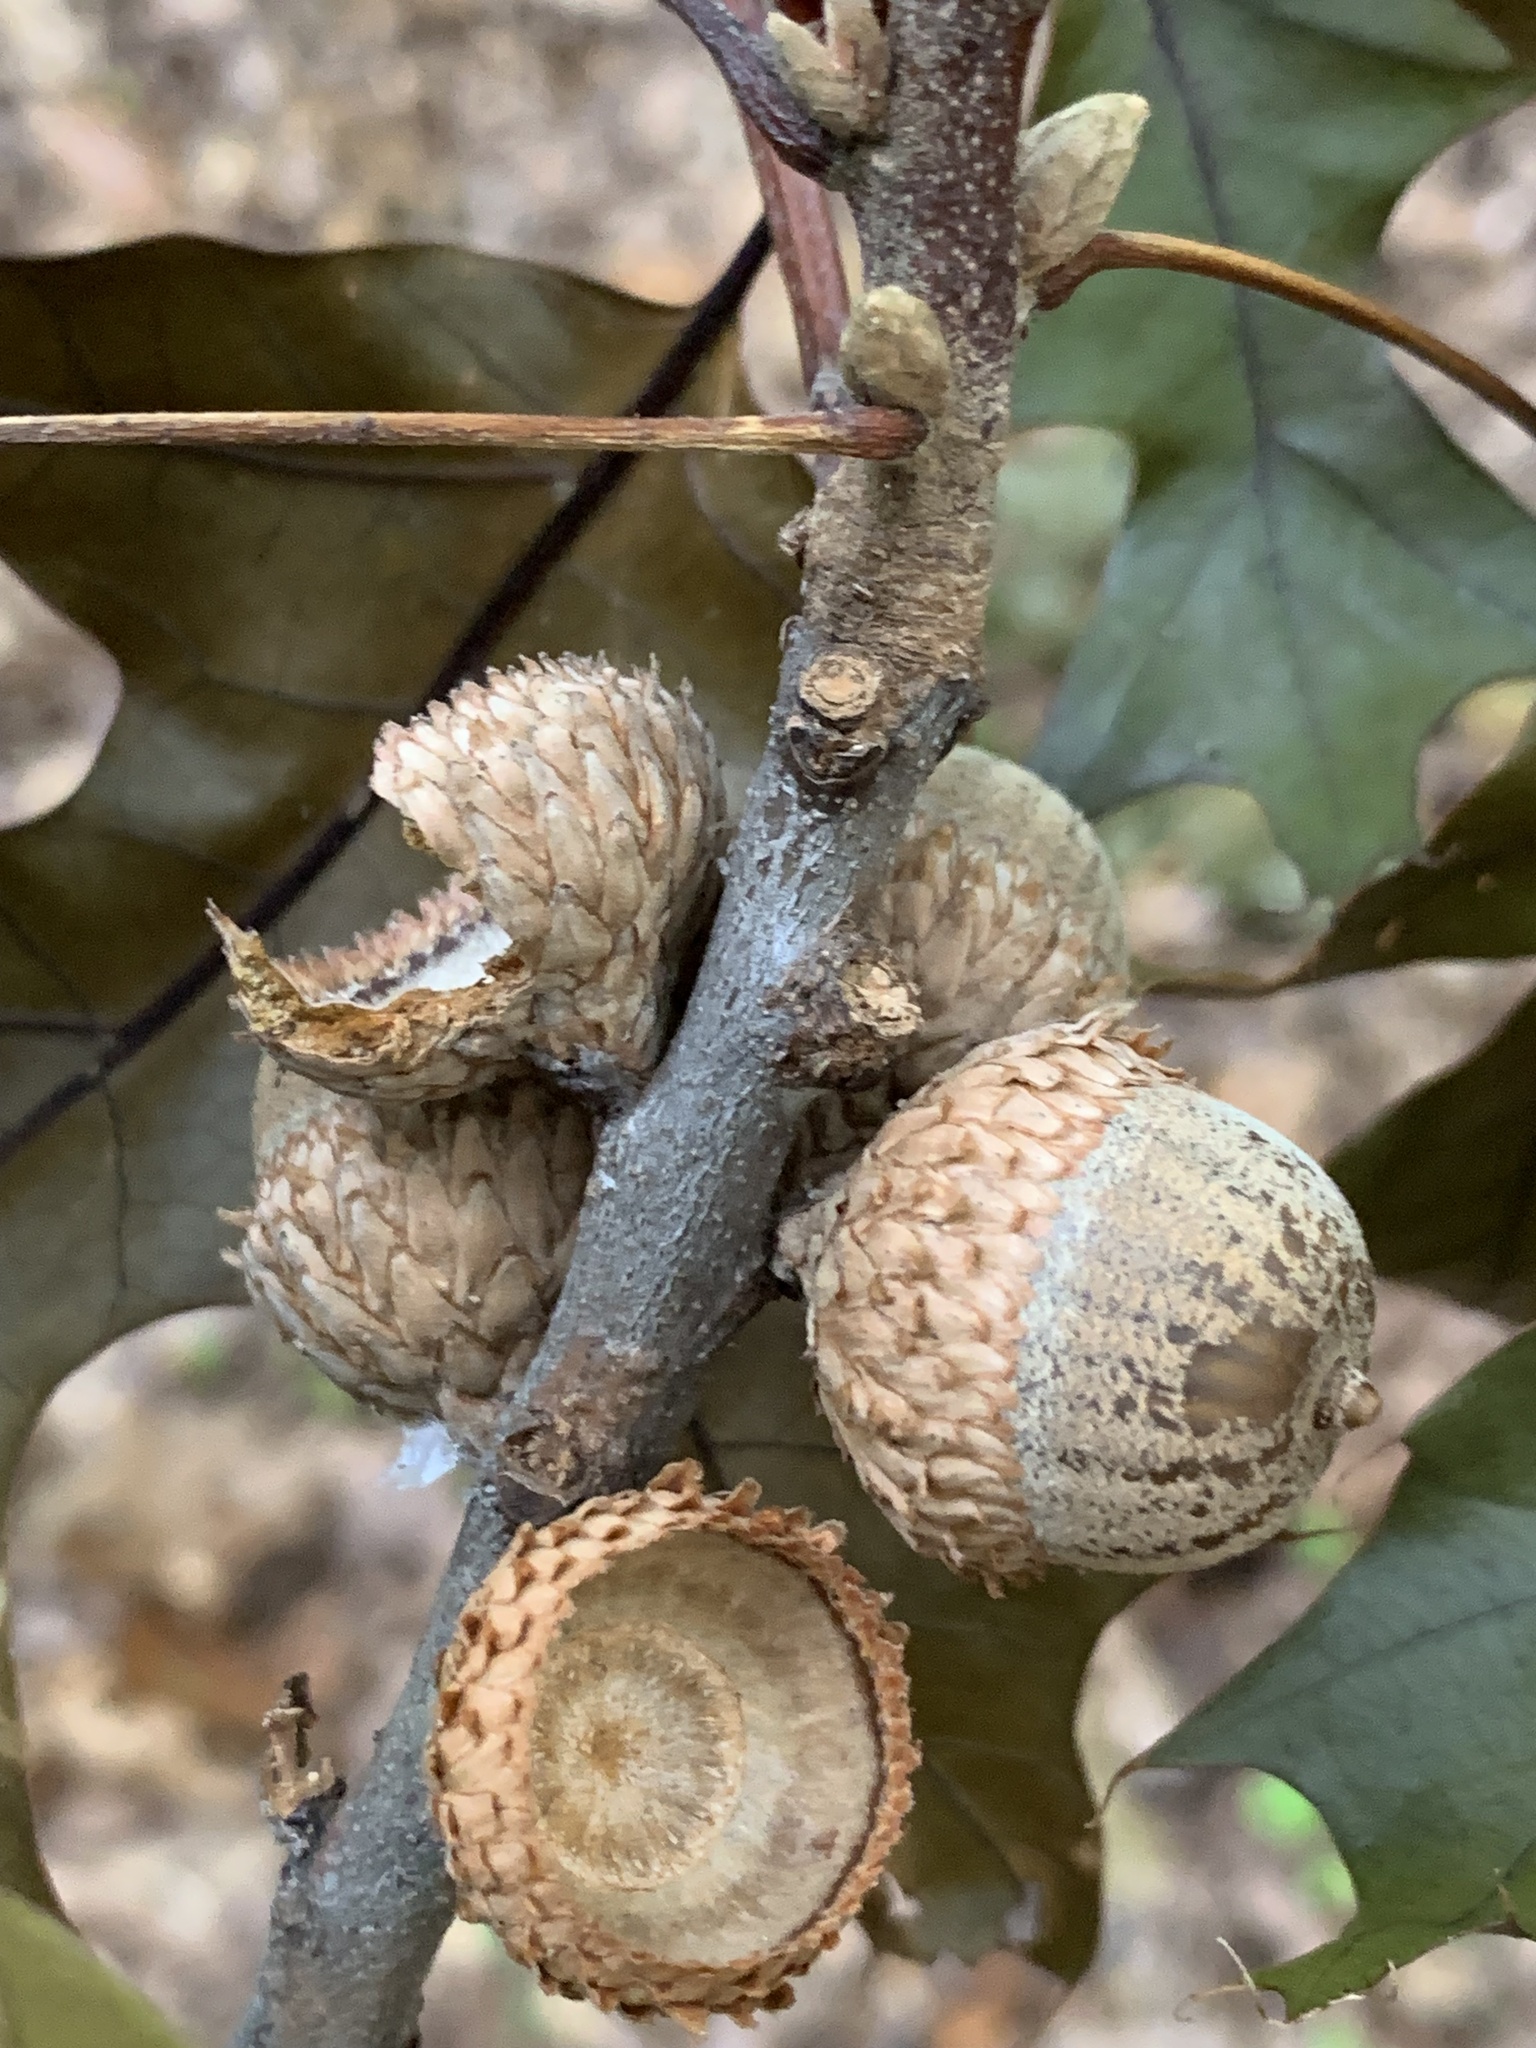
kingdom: Plantae
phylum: Tracheophyta
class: Magnoliopsida
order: Fagales
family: Fagaceae
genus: Quercus
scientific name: Quercus velutina
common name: Black oak
